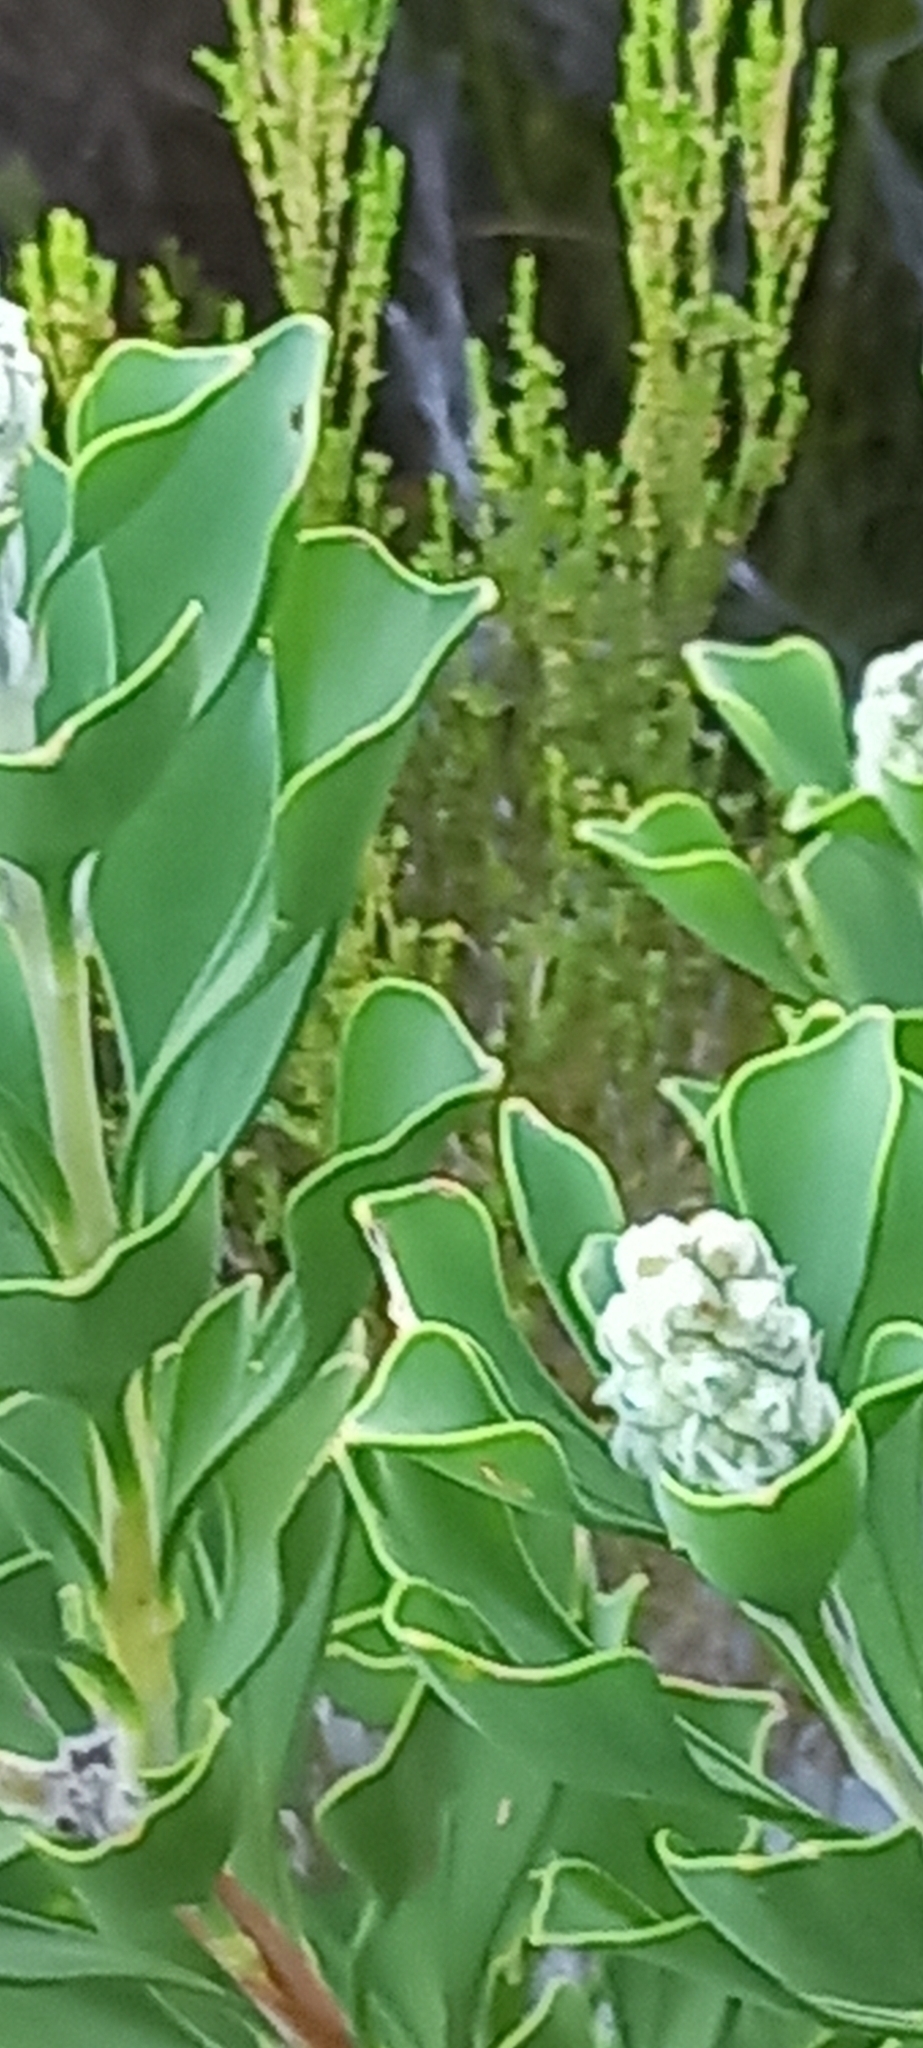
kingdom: Plantae
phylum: Tracheophyta
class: Magnoliopsida
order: Proteales
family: Proteaceae
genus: Paranomus
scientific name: Paranomus sceptrum-gustavianus
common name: King gustav's sceptre
